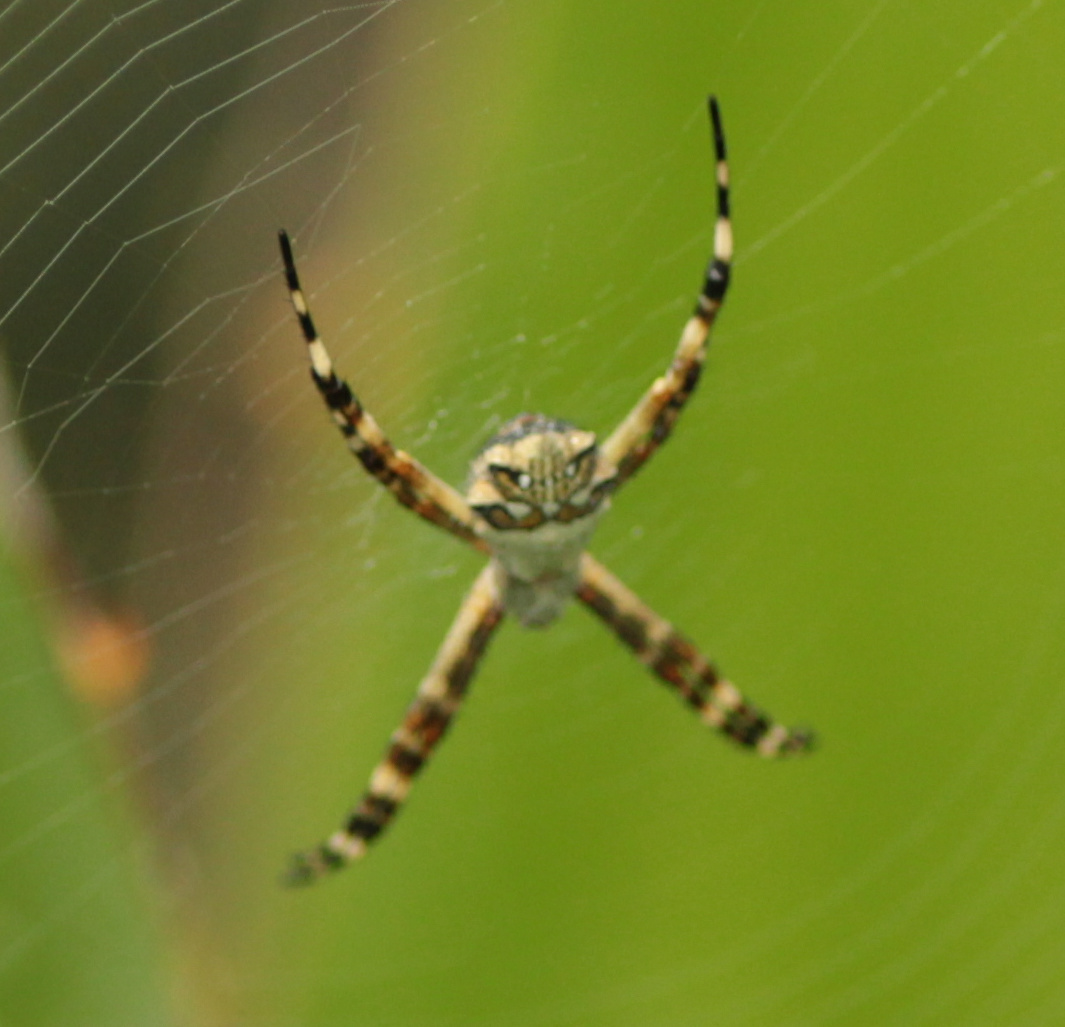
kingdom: Animalia
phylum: Arthropoda
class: Arachnida
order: Araneae
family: Araneidae
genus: Argiope
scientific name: Argiope argentata
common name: Orb weavers
